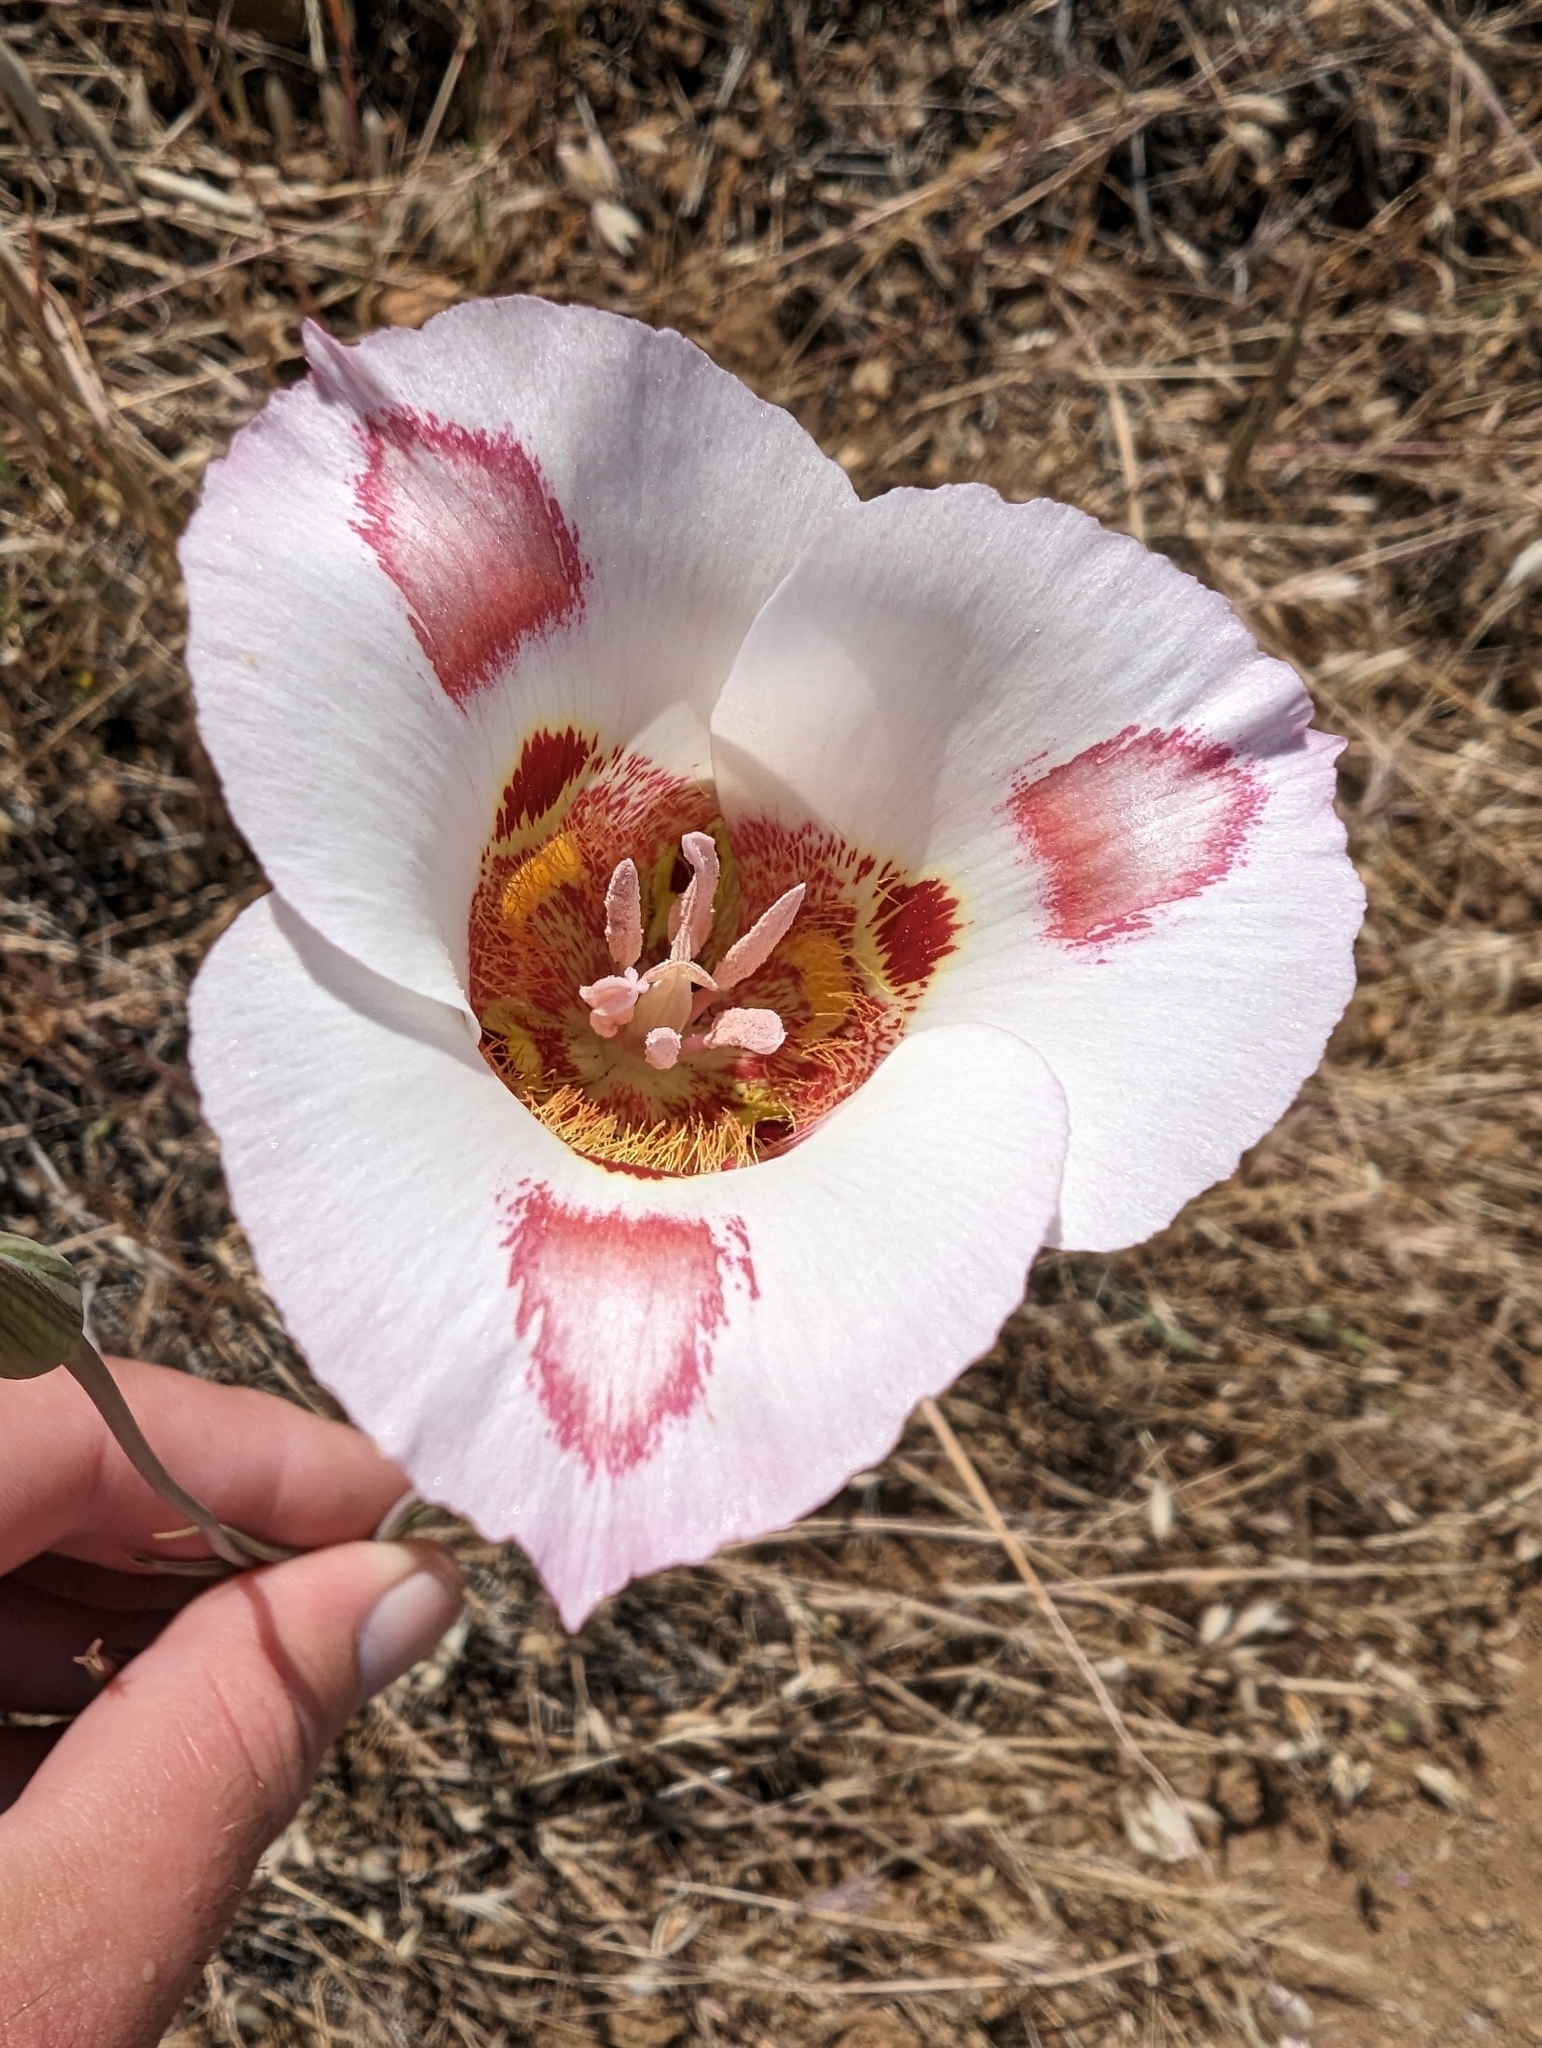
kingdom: Plantae
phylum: Tracheophyta
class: Liliopsida
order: Liliales
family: Liliaceae
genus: Calochortus
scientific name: Calochortus venustus
